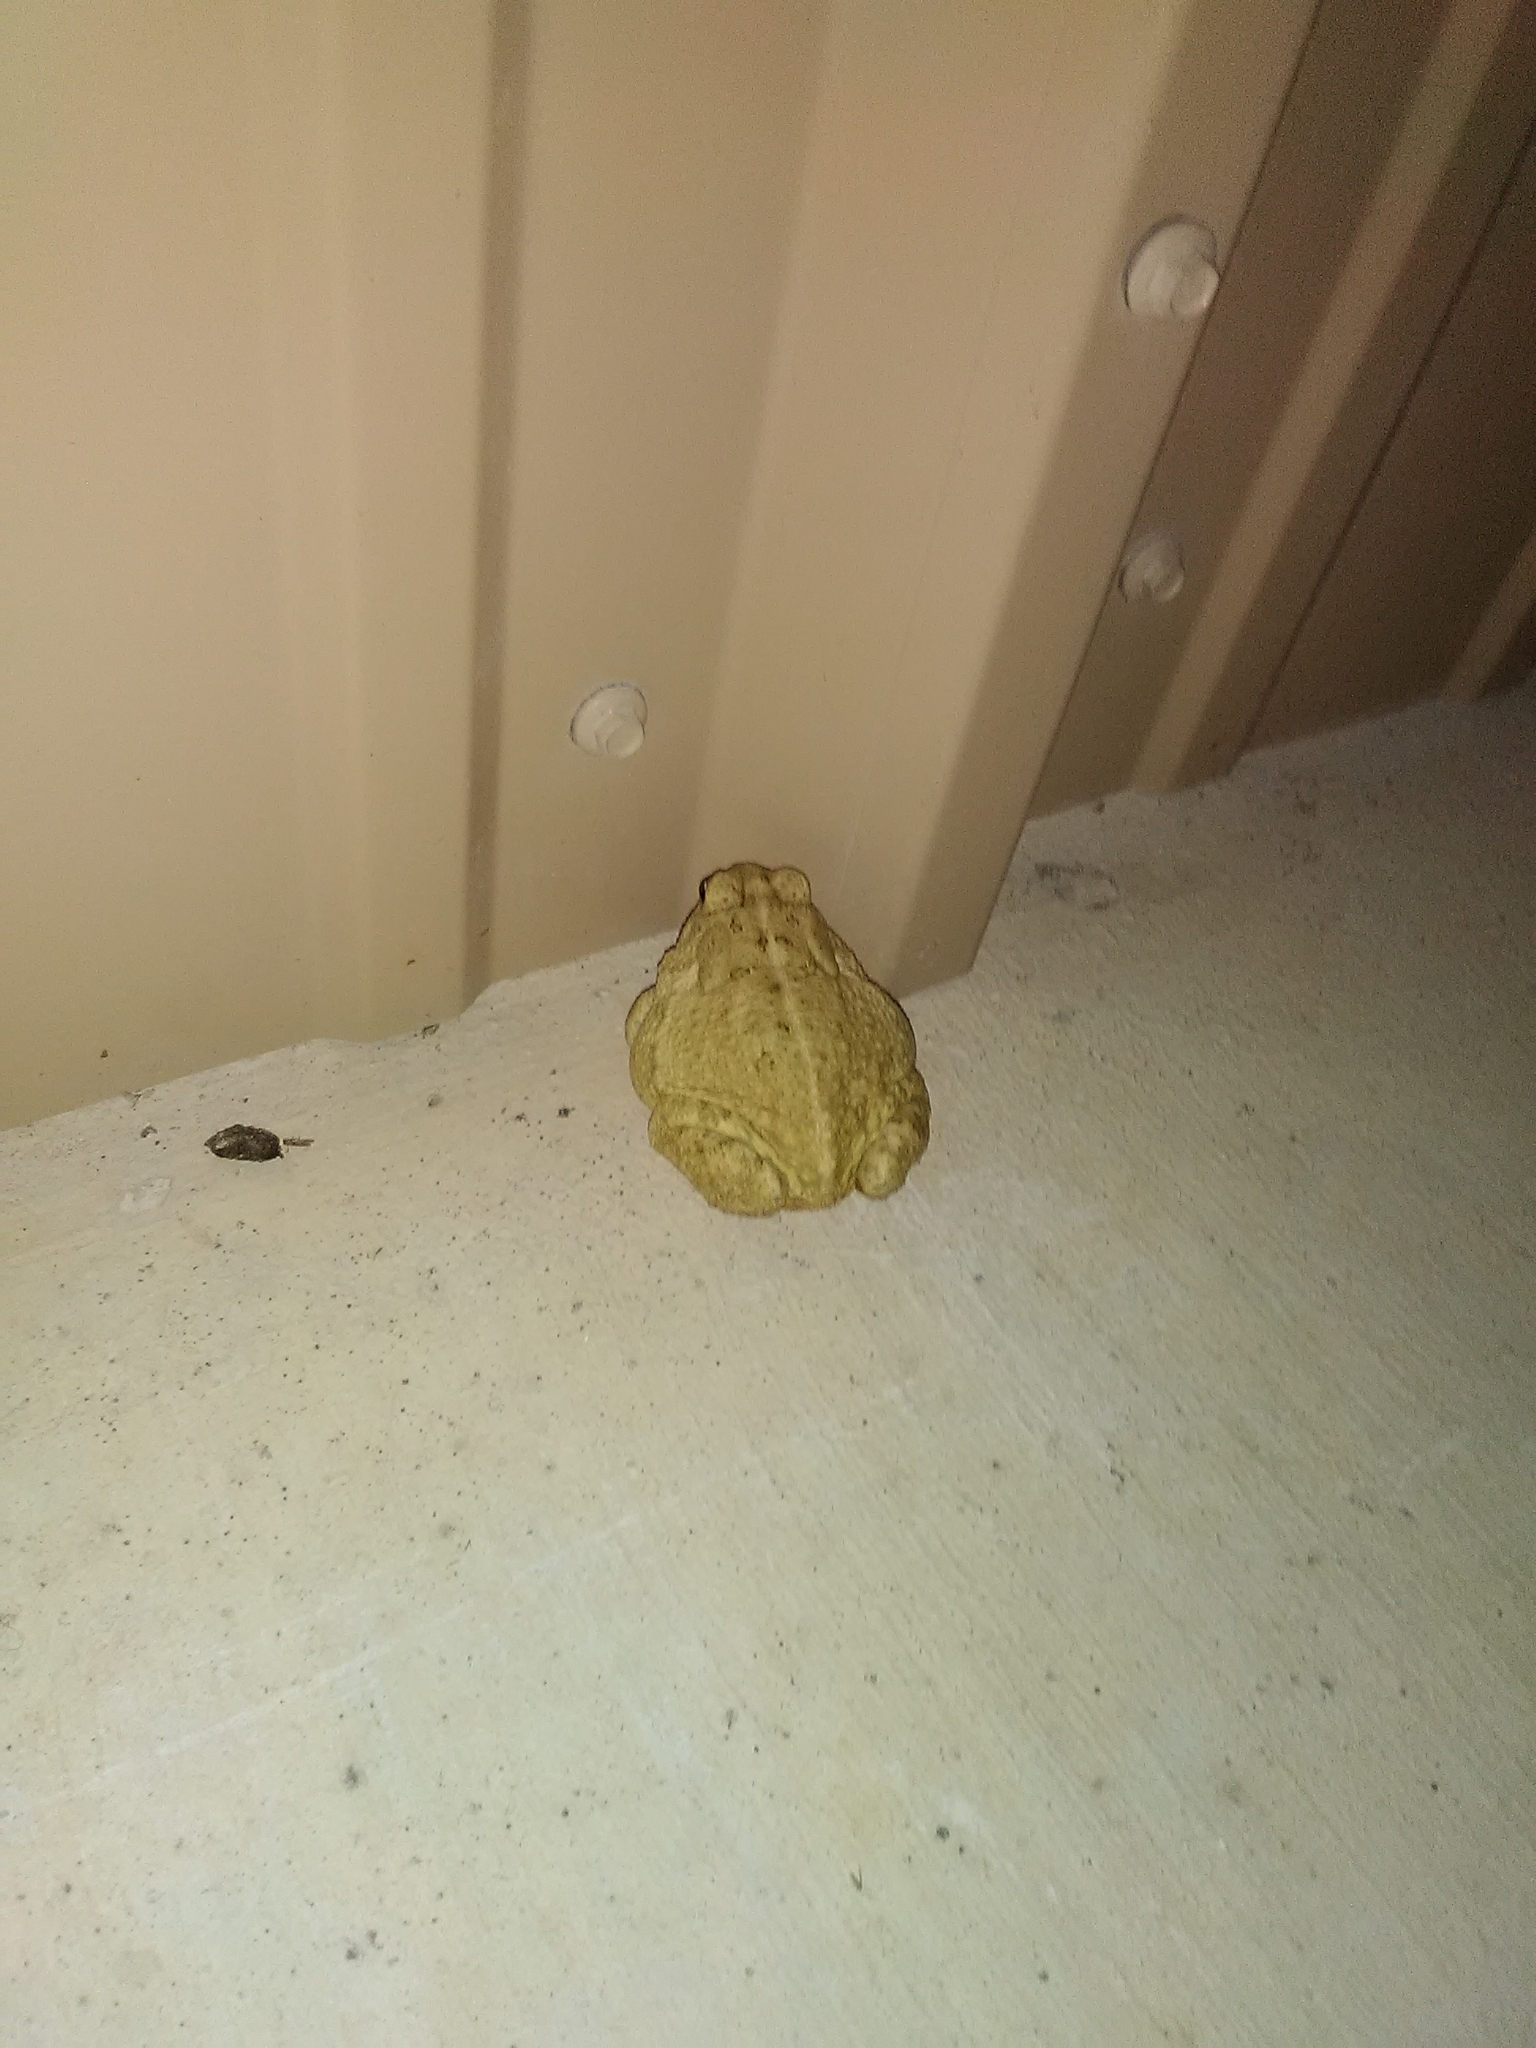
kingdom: Animalia
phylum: Chordata
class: Amphibia
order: Anura
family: Bufonidae
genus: Anaxyrus
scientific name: Anaxyrus woodhousii
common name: Woodhouse's toad
